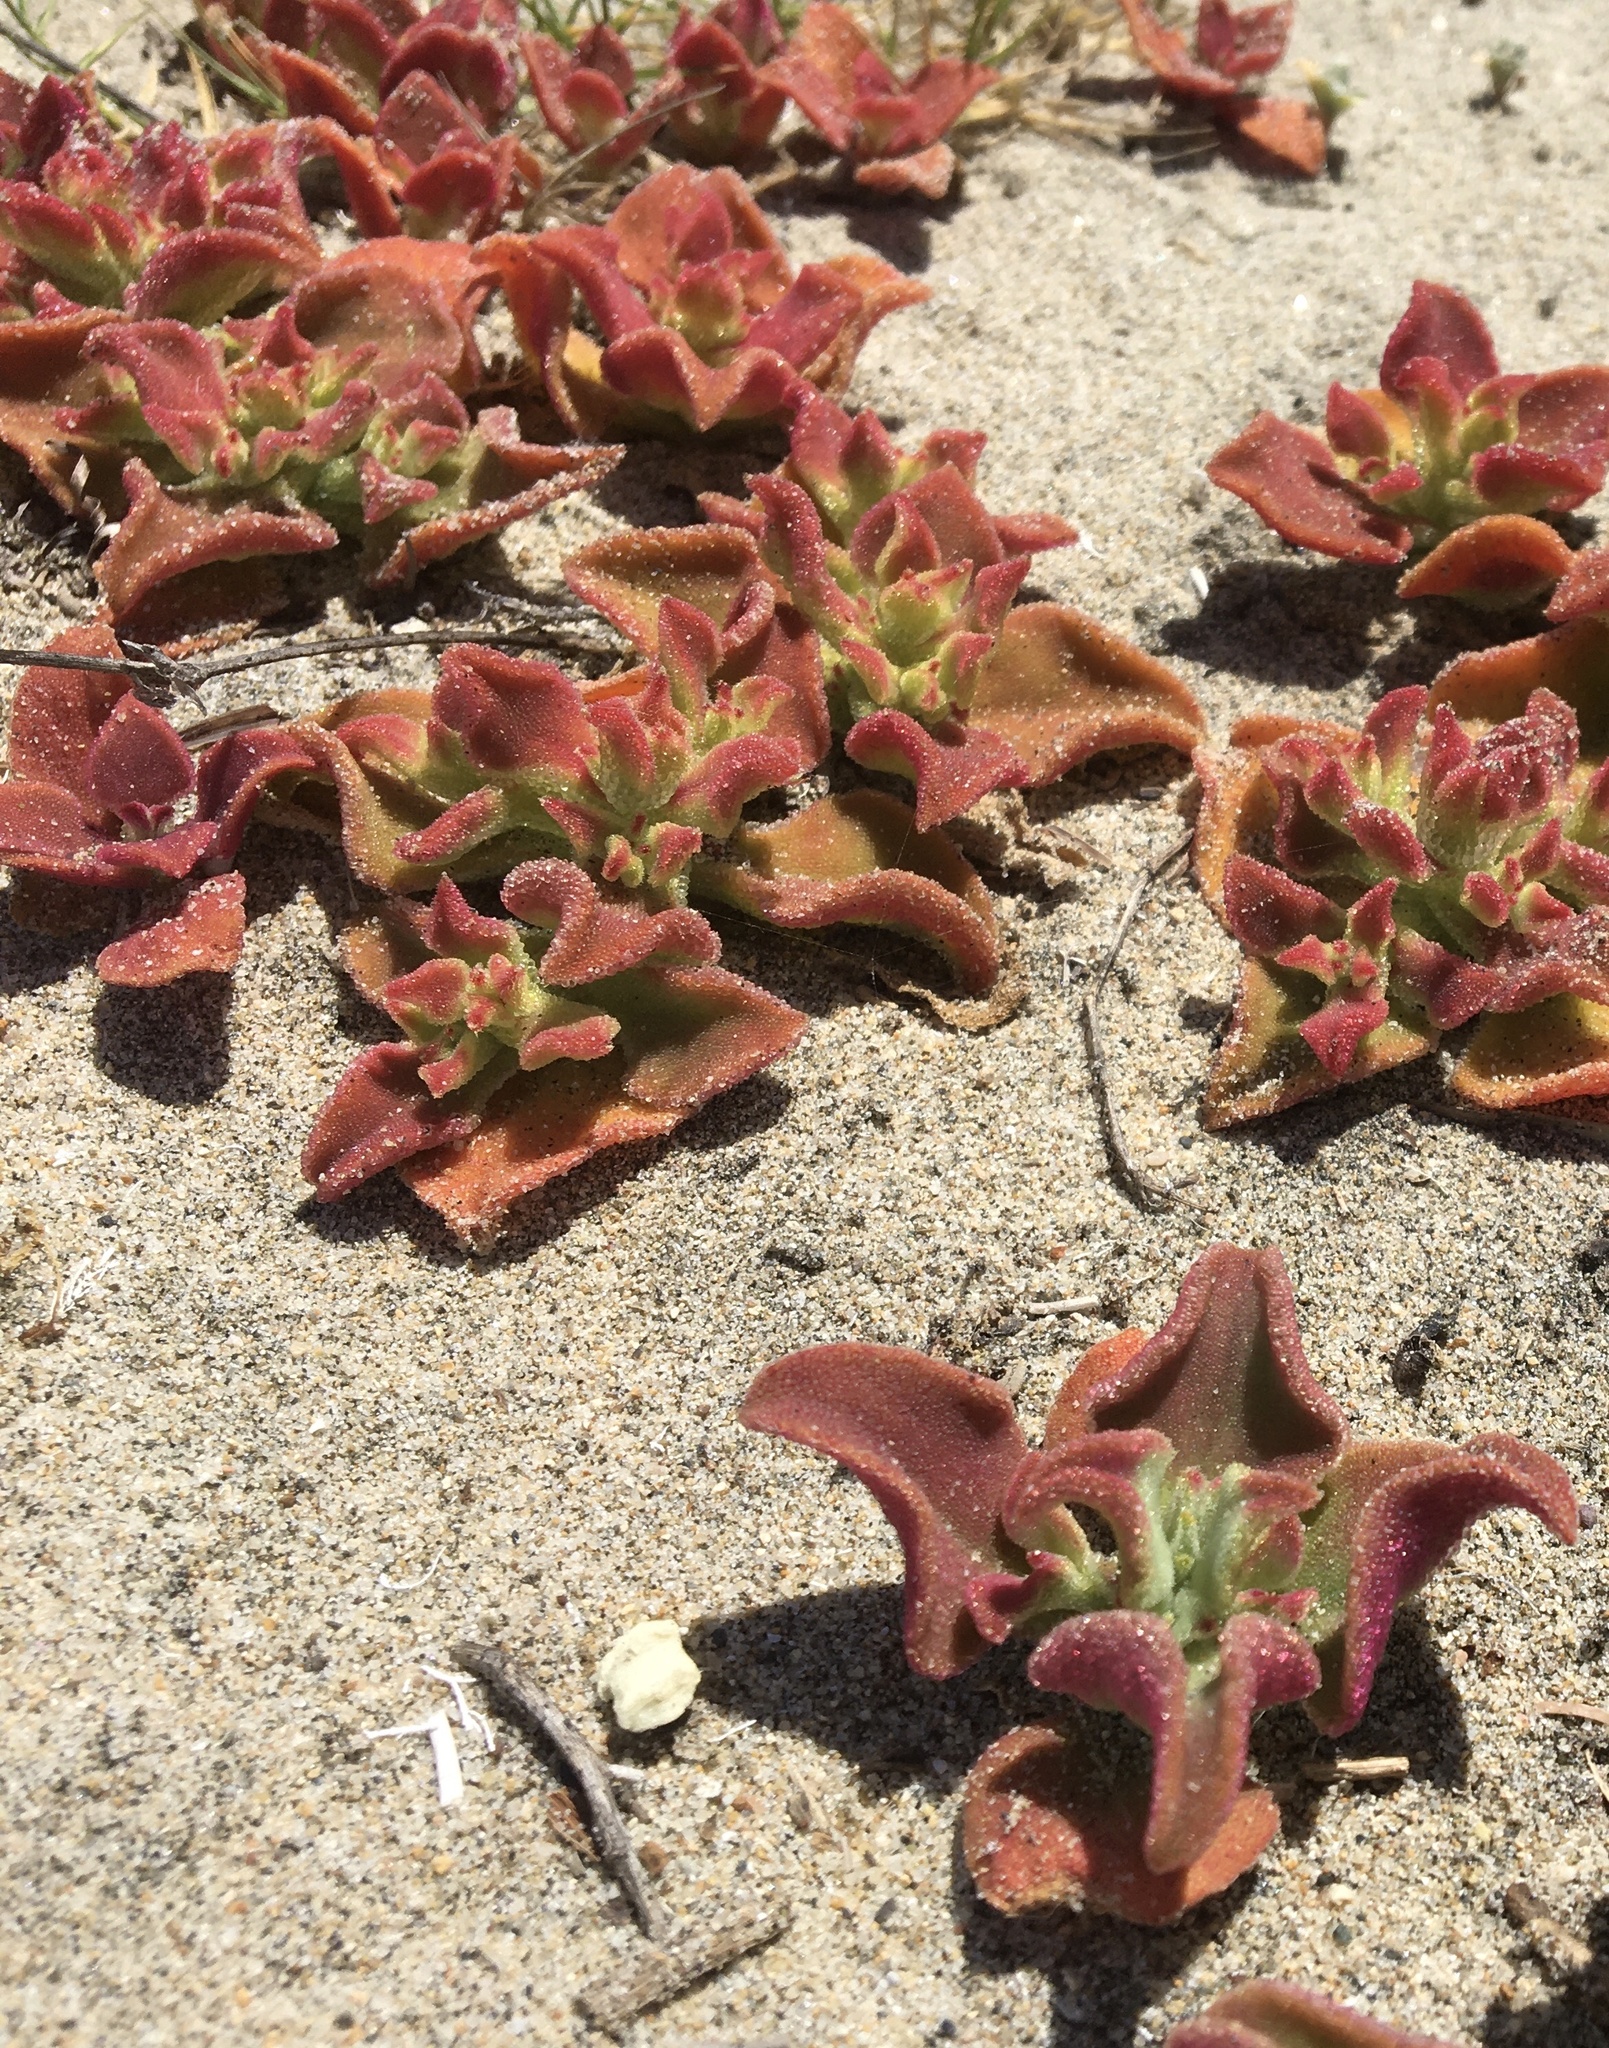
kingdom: Plantae
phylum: Tracheophyta
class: Magnoliopsida
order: Caryophyllales
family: Aizoaceae
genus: Mesembryanthemum
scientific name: Mesembryanthemum crystallinum
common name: Common iceplant
